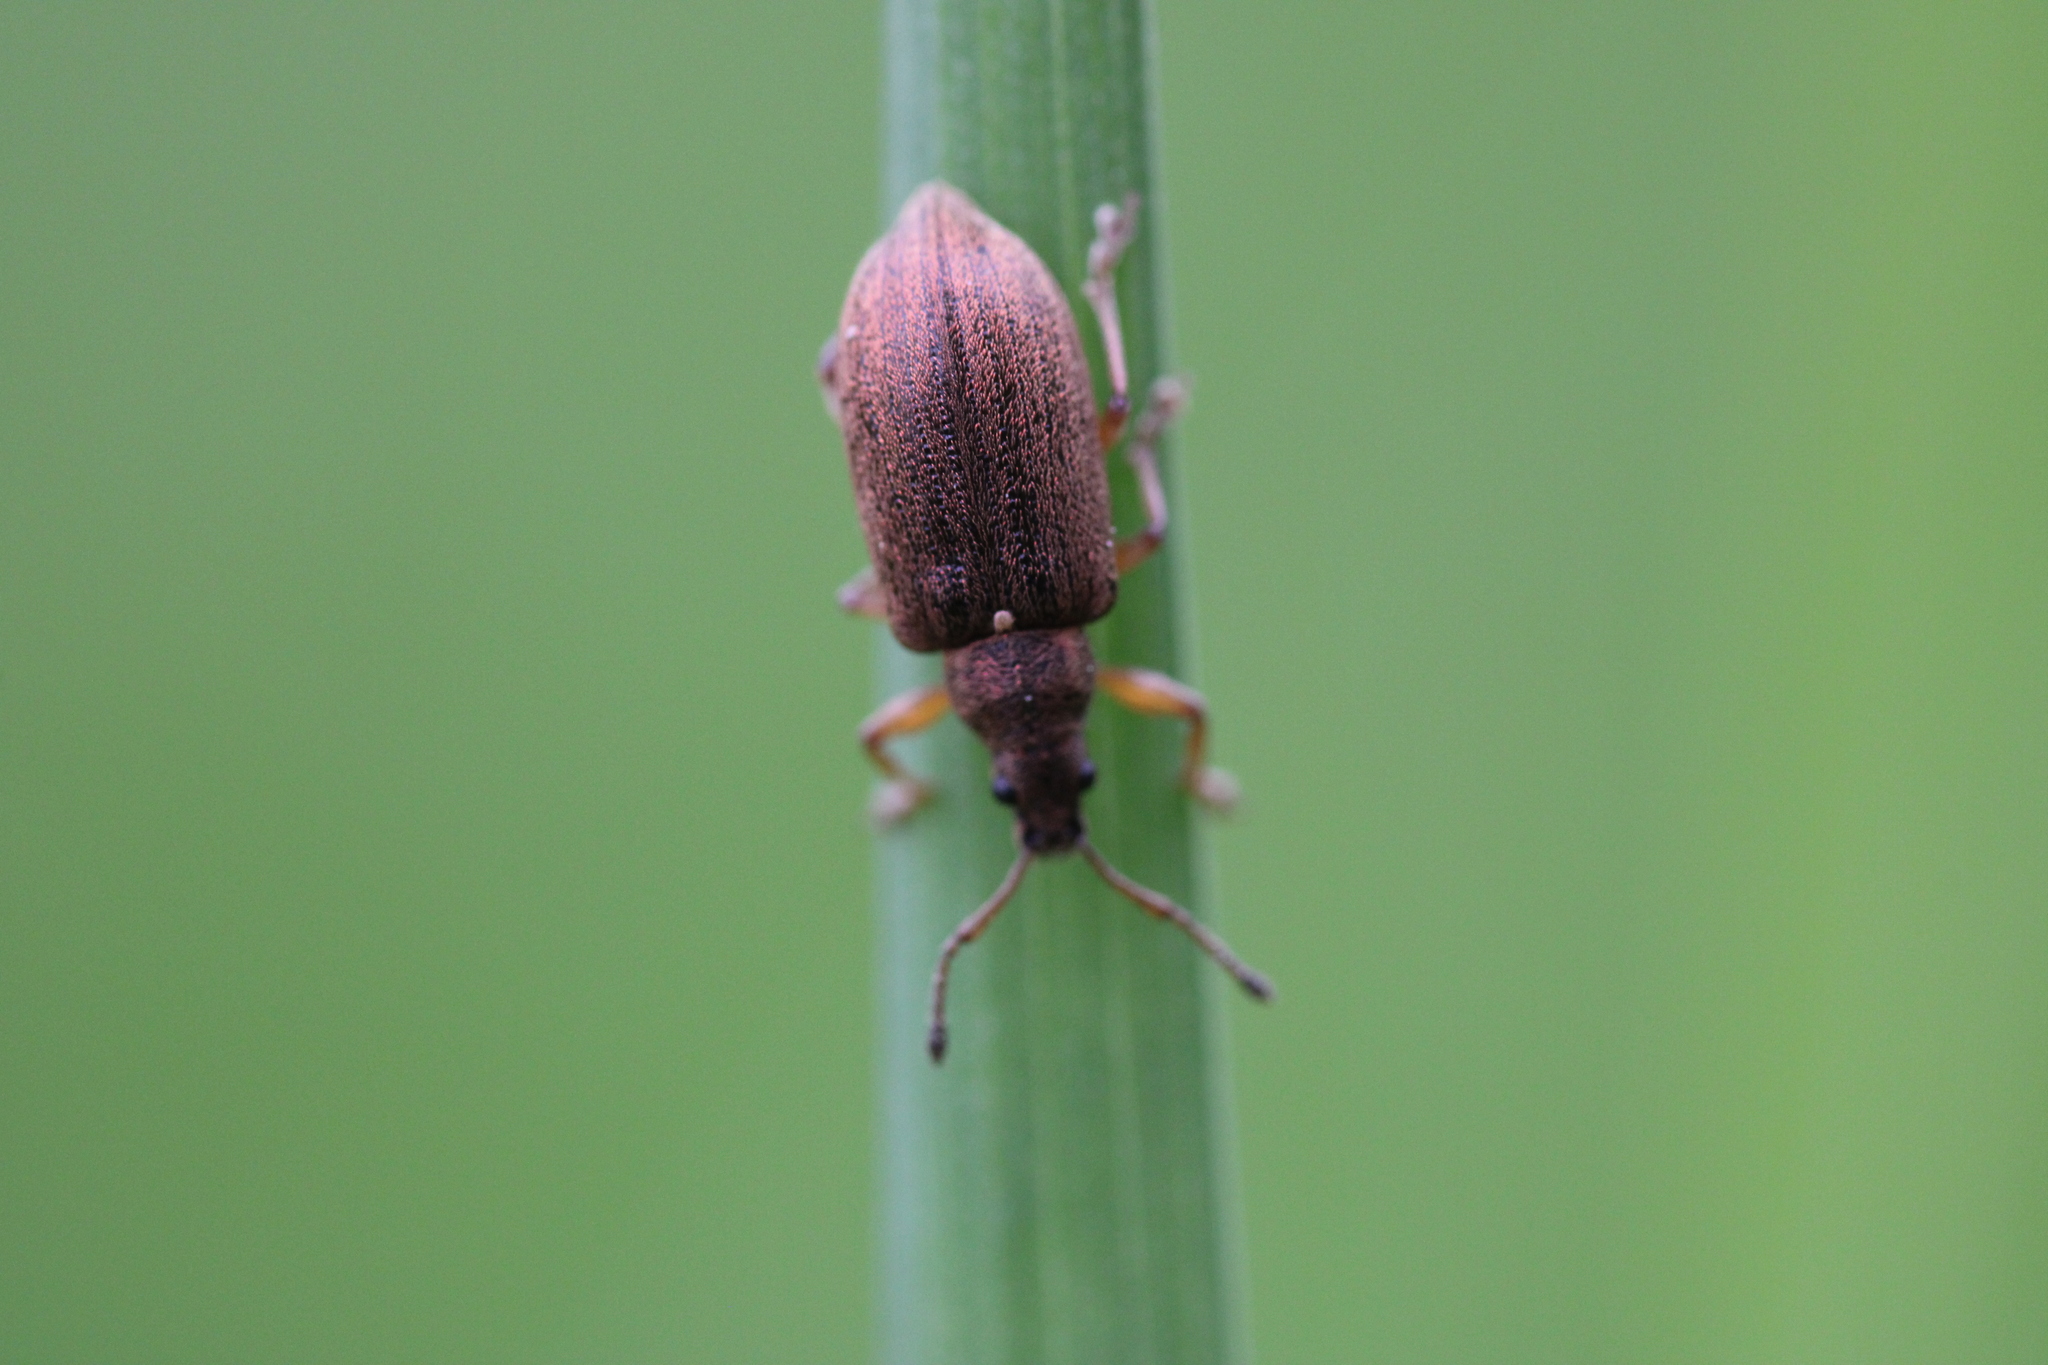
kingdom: Animalia
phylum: Arthropoda
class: Insecta
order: Coleoptera
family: Curculionidae
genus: Phyllobius
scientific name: Phyllobius pyri
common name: Common leaf weevil
